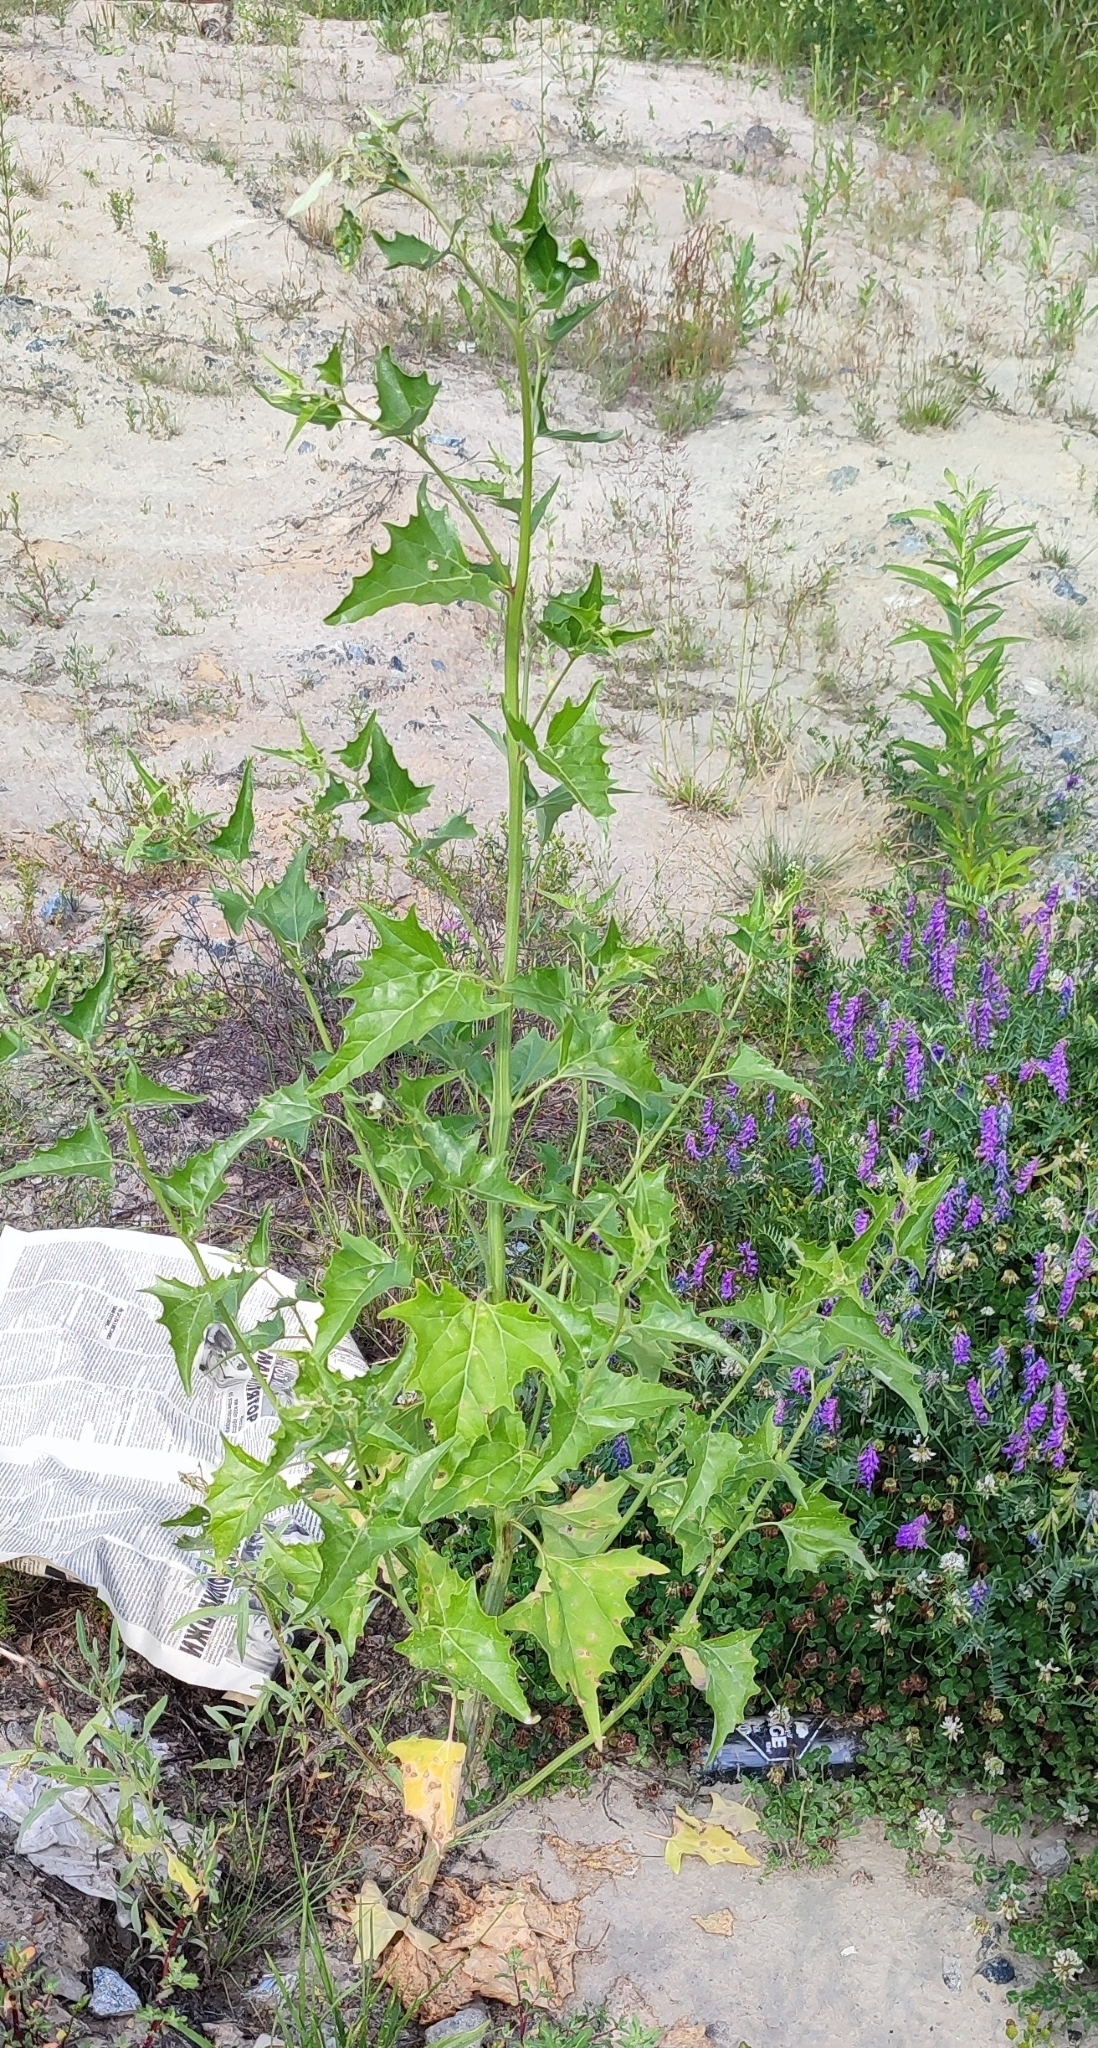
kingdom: Plantae
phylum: Tracheophyta
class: Magnoliopsida
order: Caryophyllales
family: Amaranthaceae
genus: Atriplex
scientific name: Atriplex sagittata
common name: Purple orache
